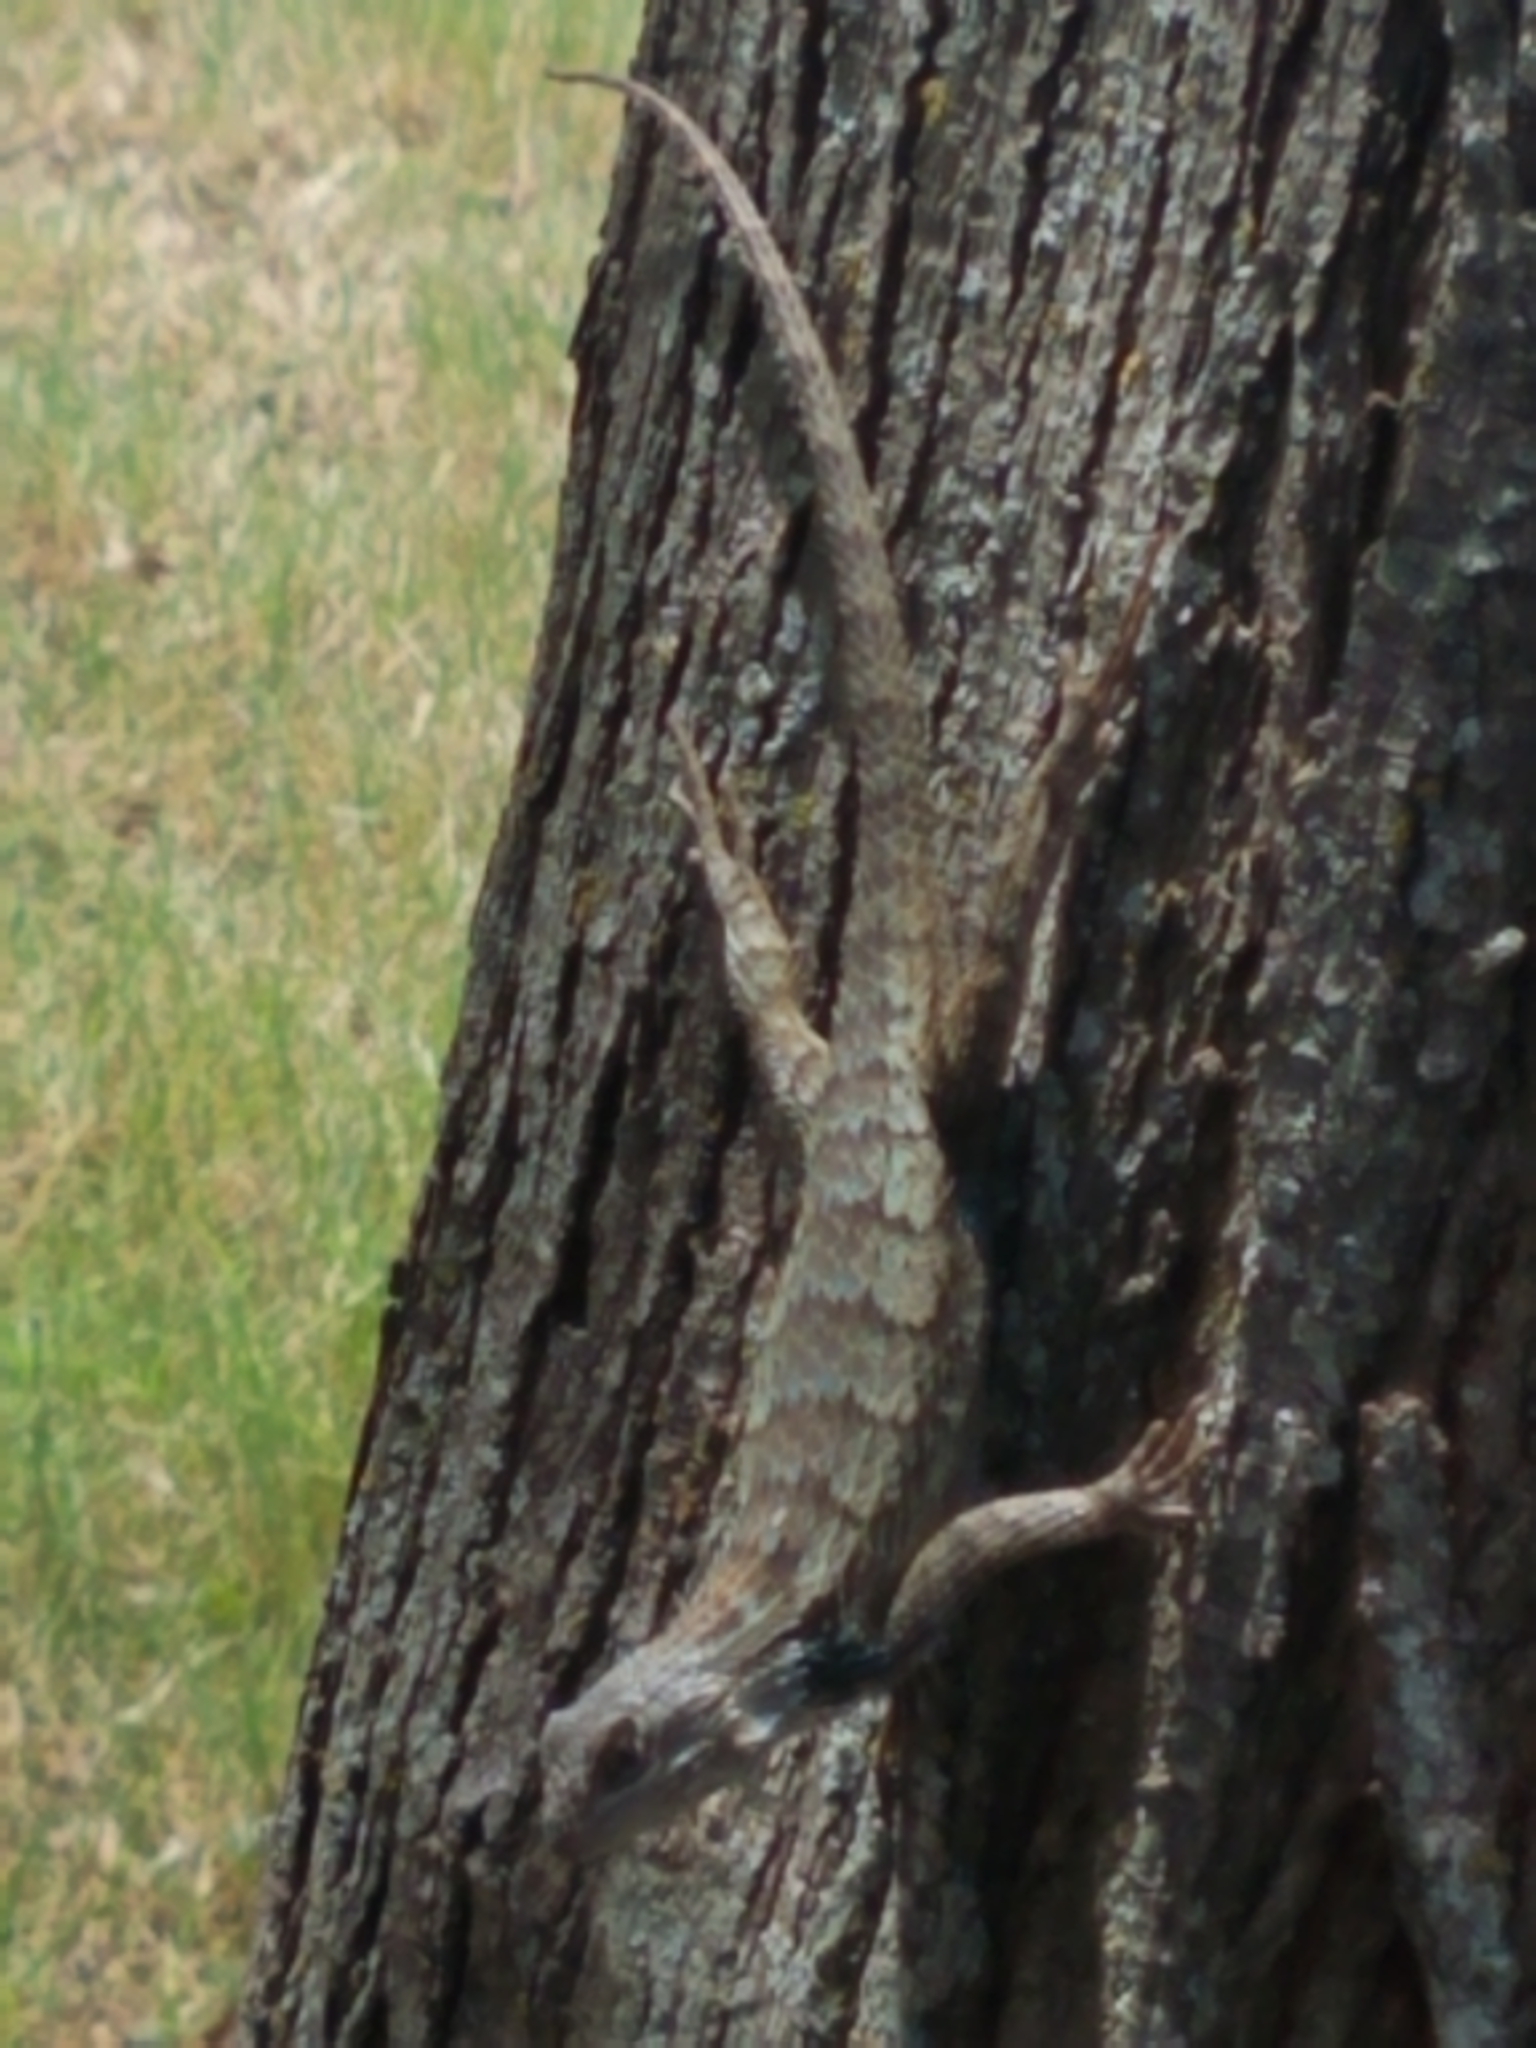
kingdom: Animalia
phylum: Chordata
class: Squamata
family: Phrynosomatidae
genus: Sceloporus
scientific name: Sceloporus olivaceus
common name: Texas spiny lizard
